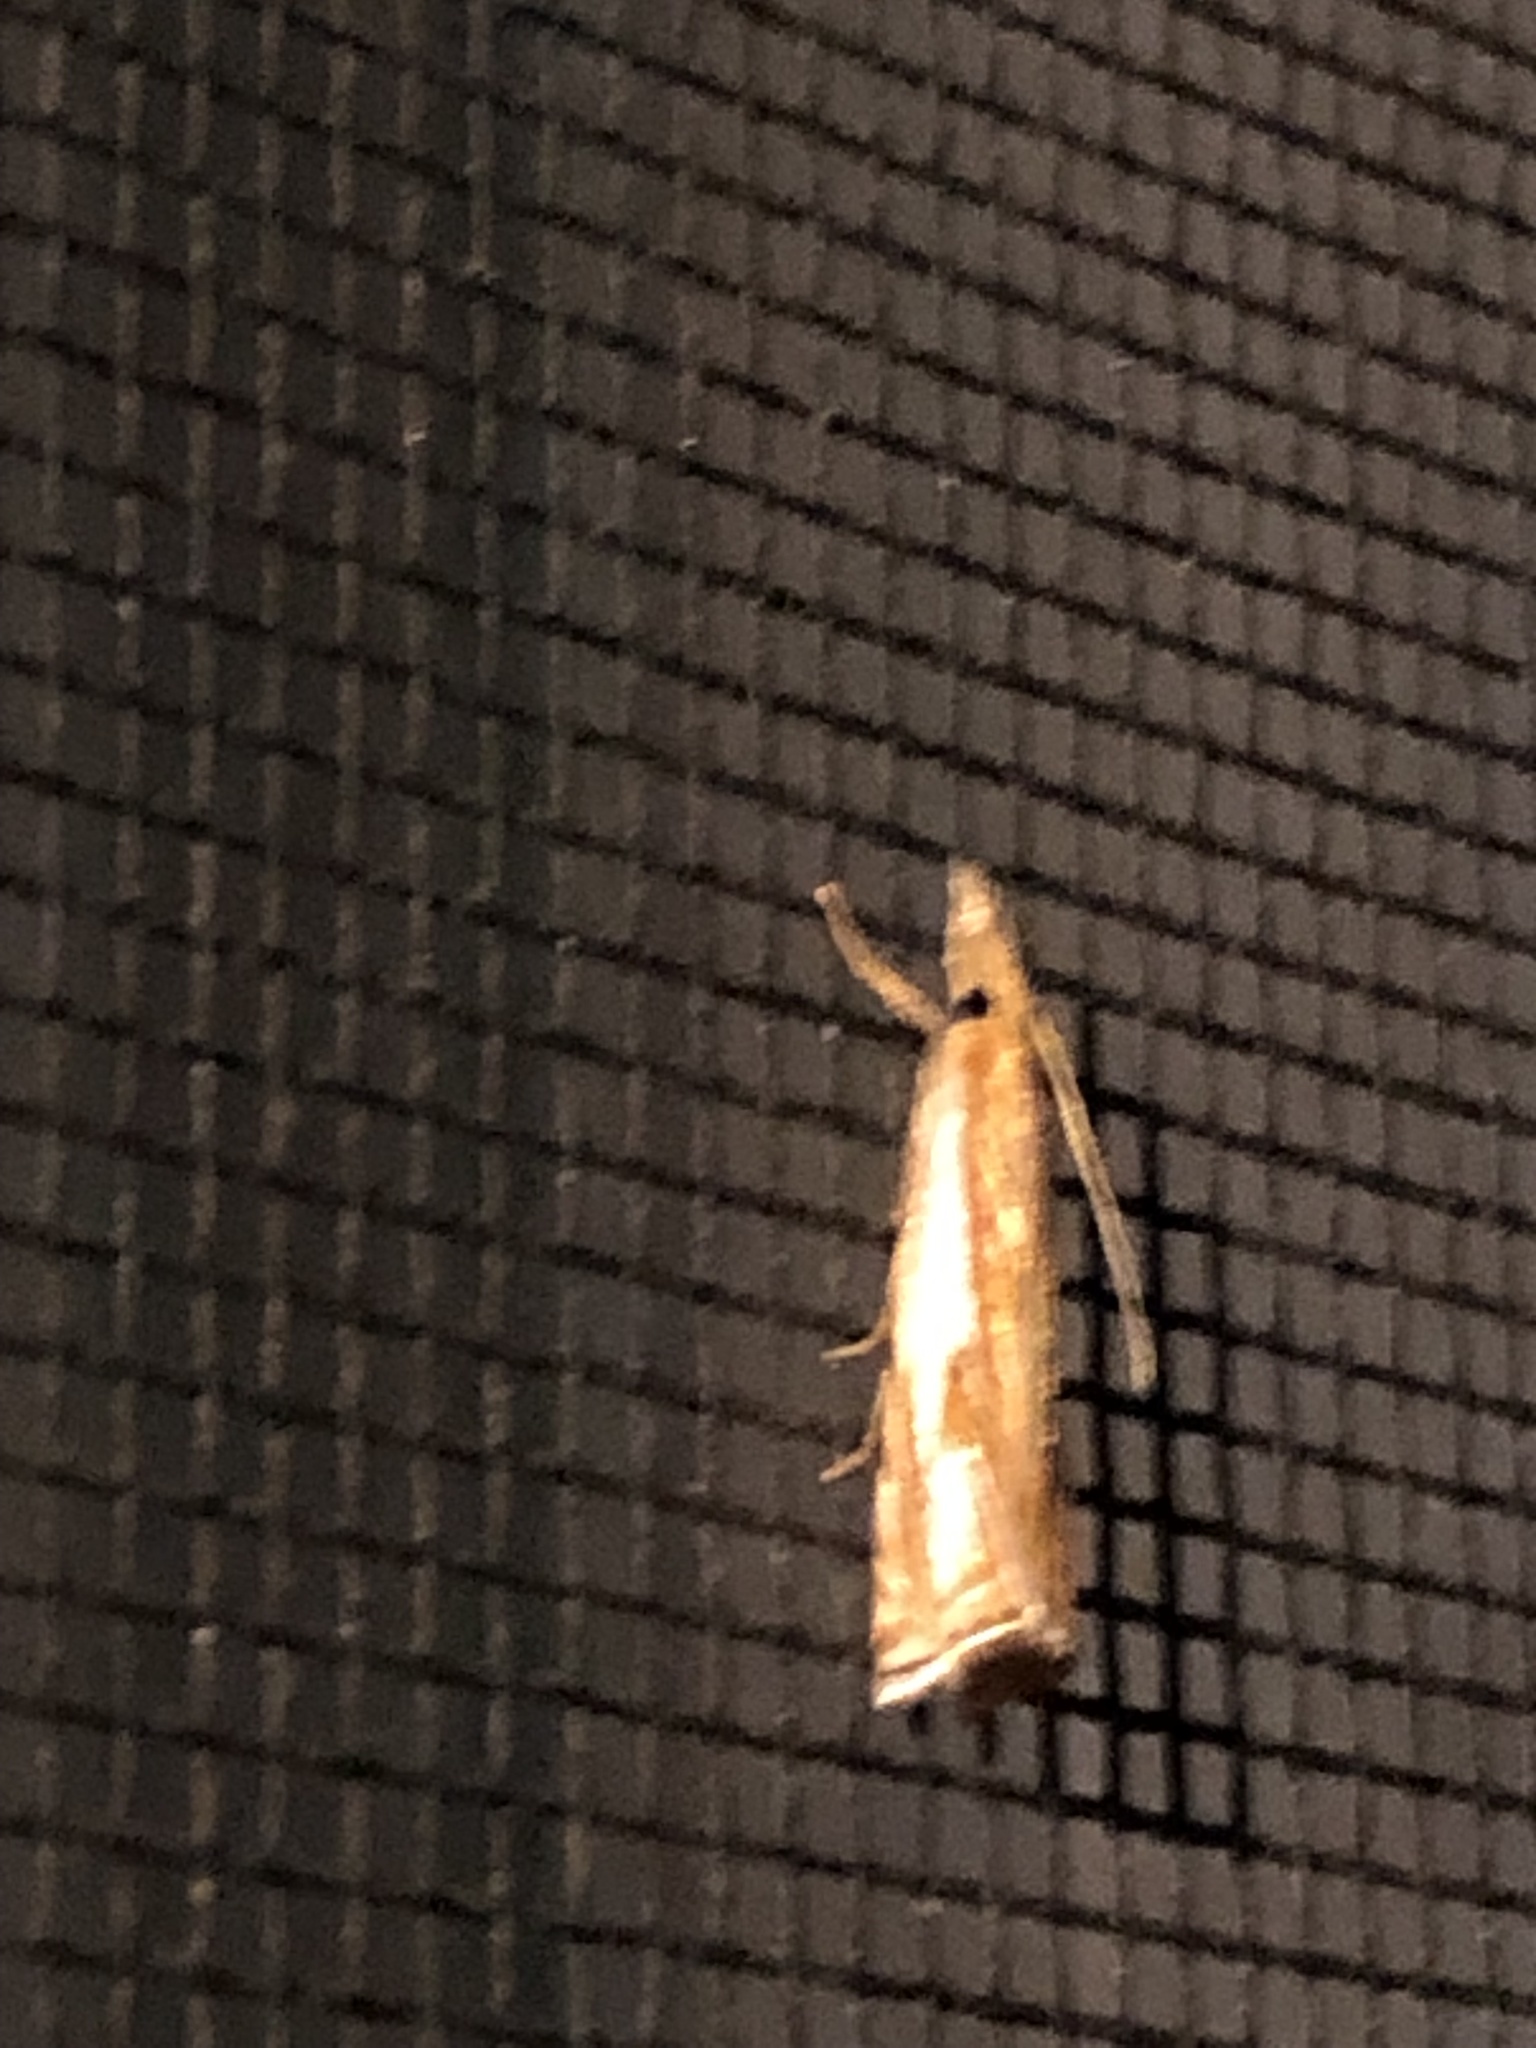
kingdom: Animalia
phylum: Arthropoda
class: Insecta
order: Lepidoptera
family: Crambidae
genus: Crambus
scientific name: Crambus agitatellus
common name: Double-banded grass-veneer
